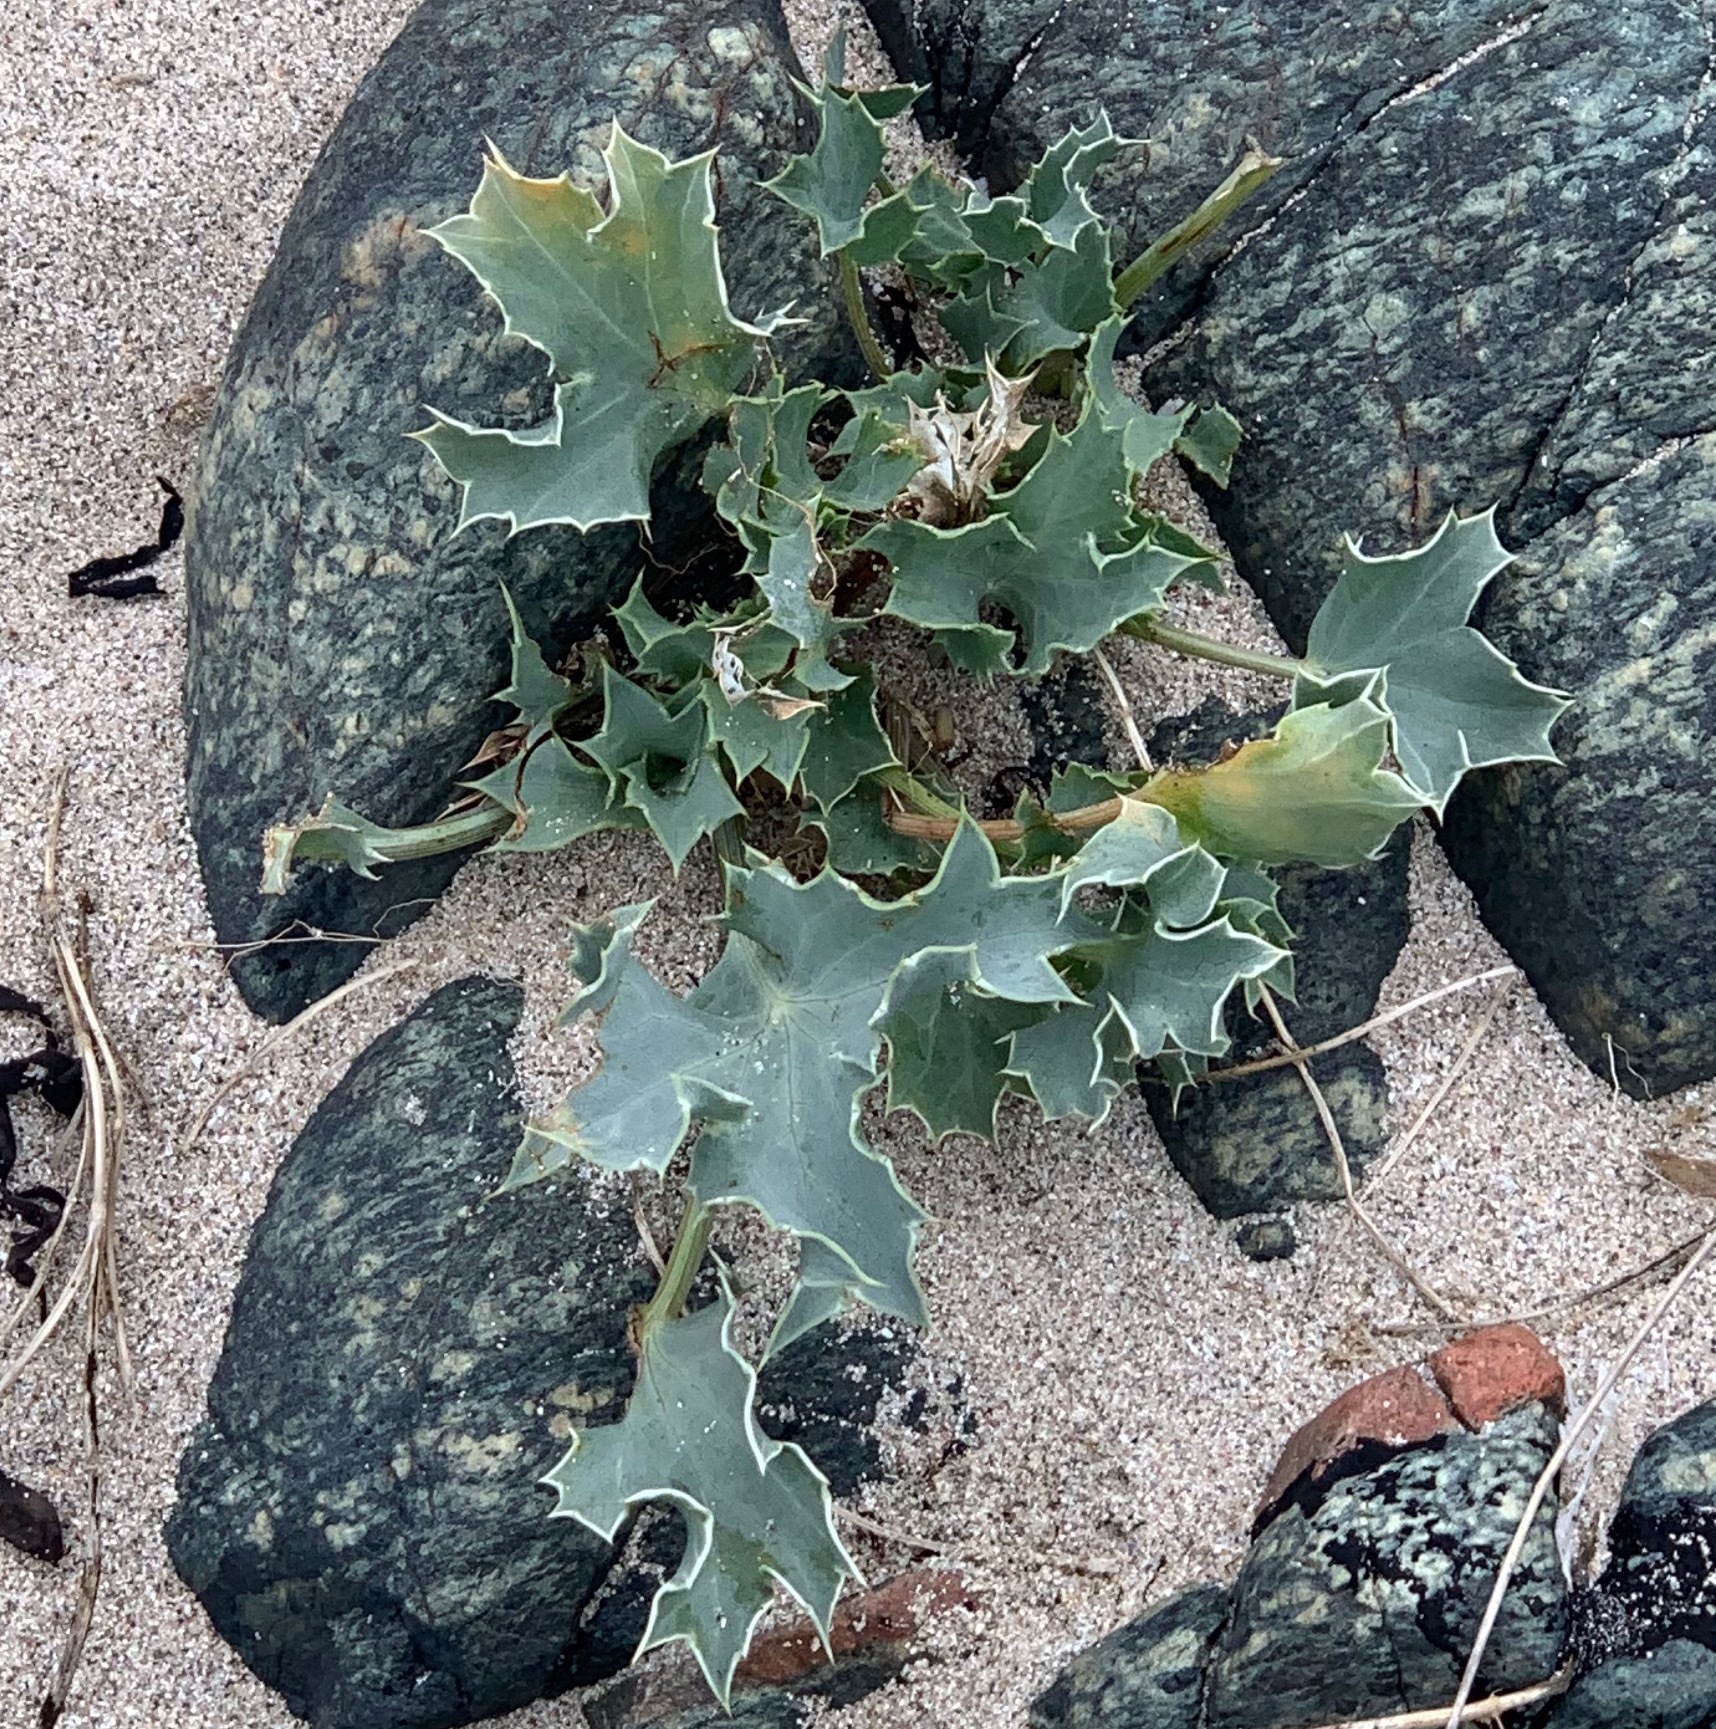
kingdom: Plantae
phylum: Tracheophyta
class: Magnoliopsida
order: Apiales
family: Apiaceae
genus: Eryngium
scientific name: Eryngium maritimum
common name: Sea-holly
